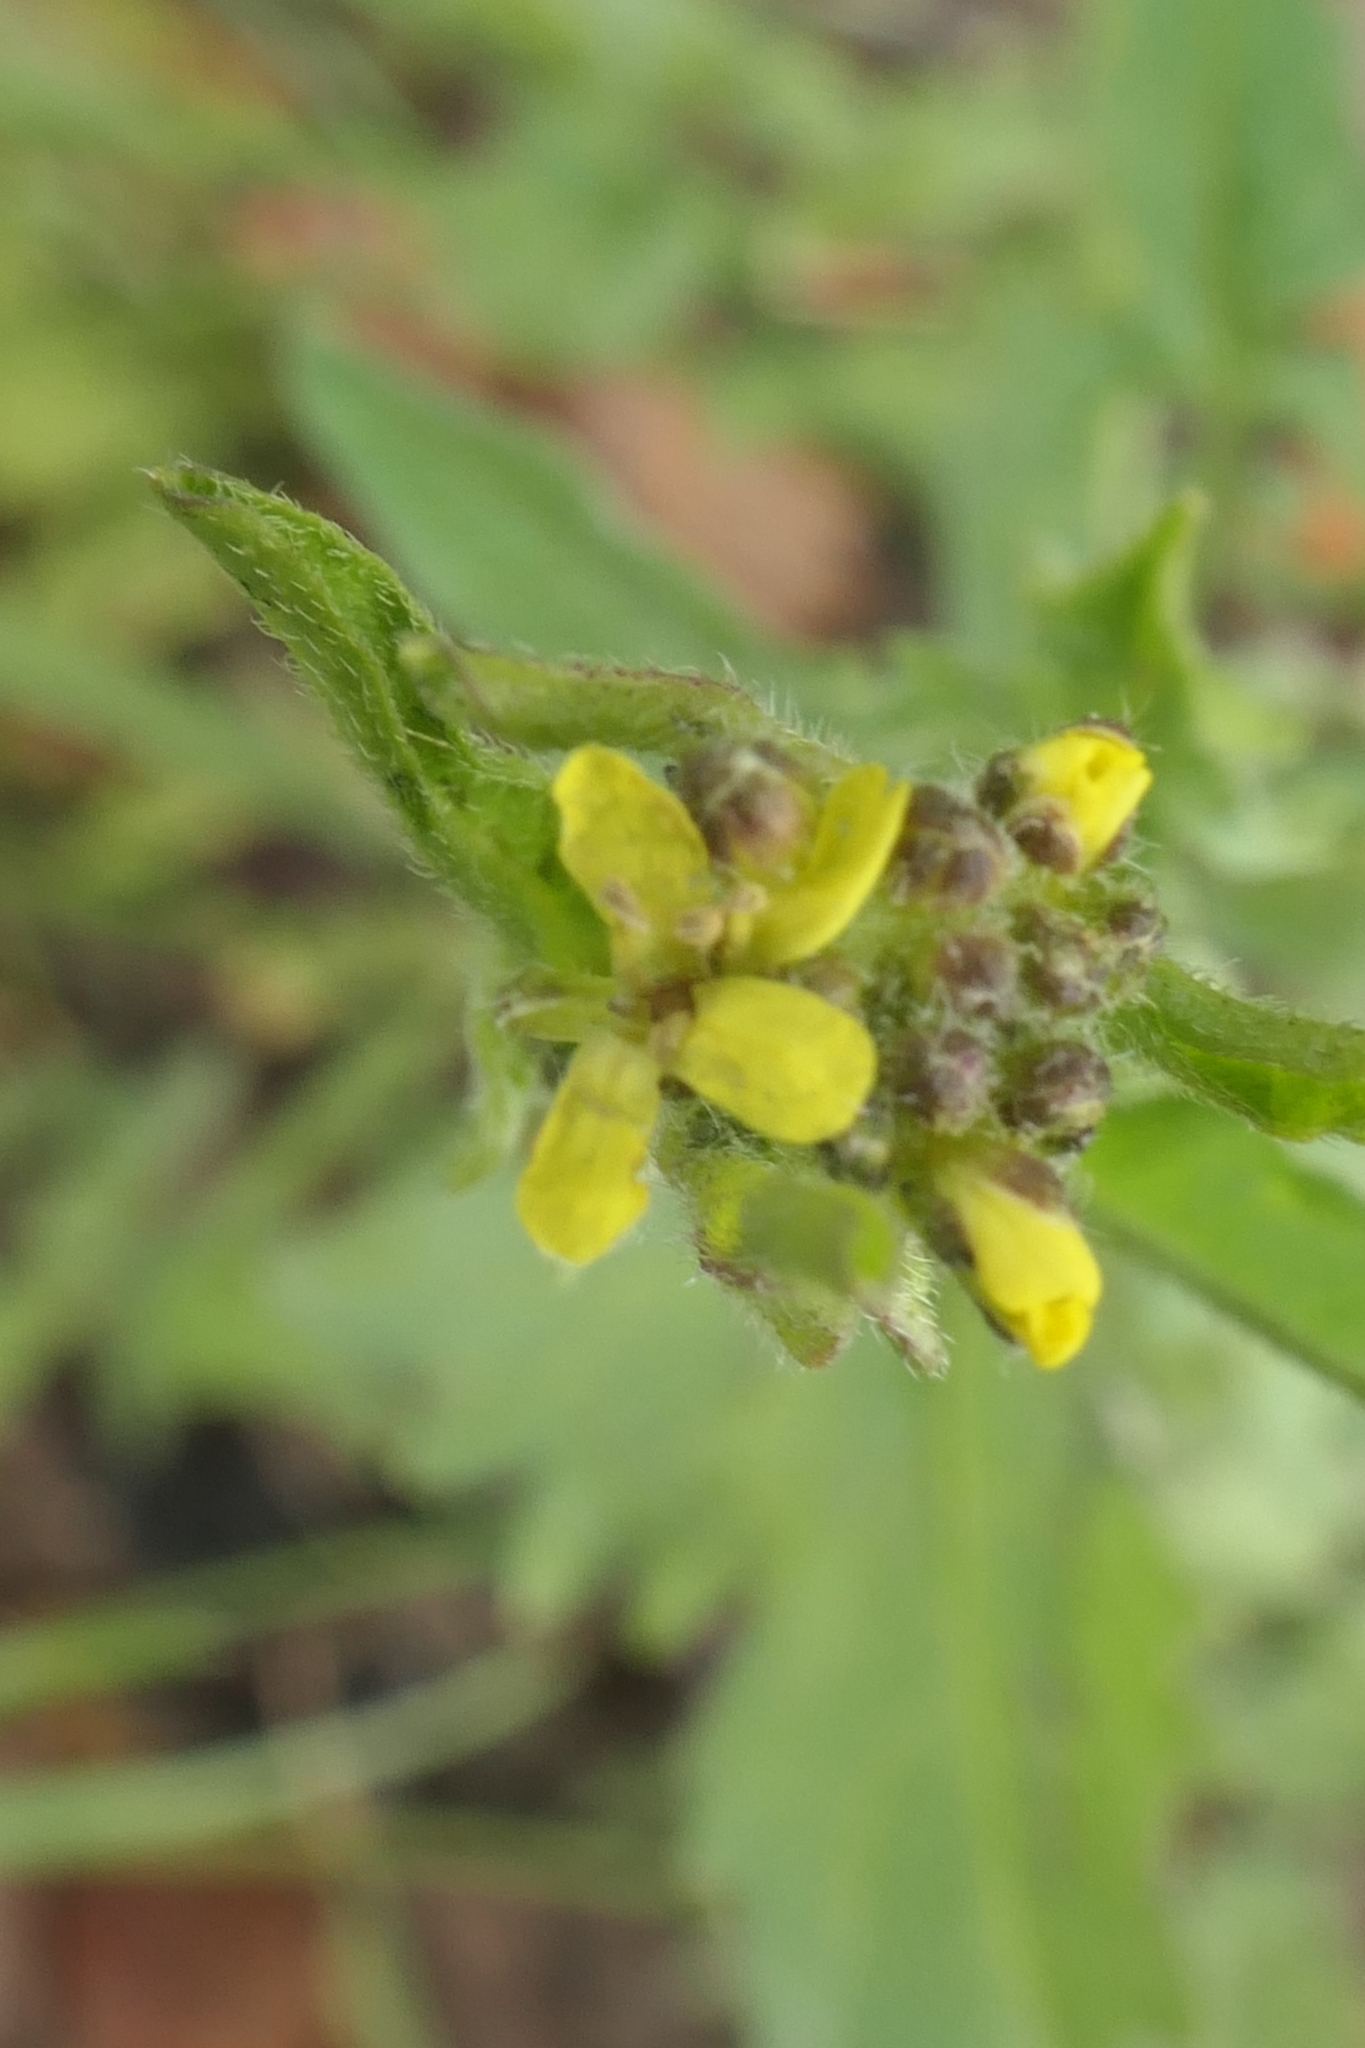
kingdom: Plantae
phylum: Tracheophyta
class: Magnoliopsida
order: Brassicales
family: Brassicaceae
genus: Sisymbrium
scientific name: Sisymbrium officinale
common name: Hedge mustard
